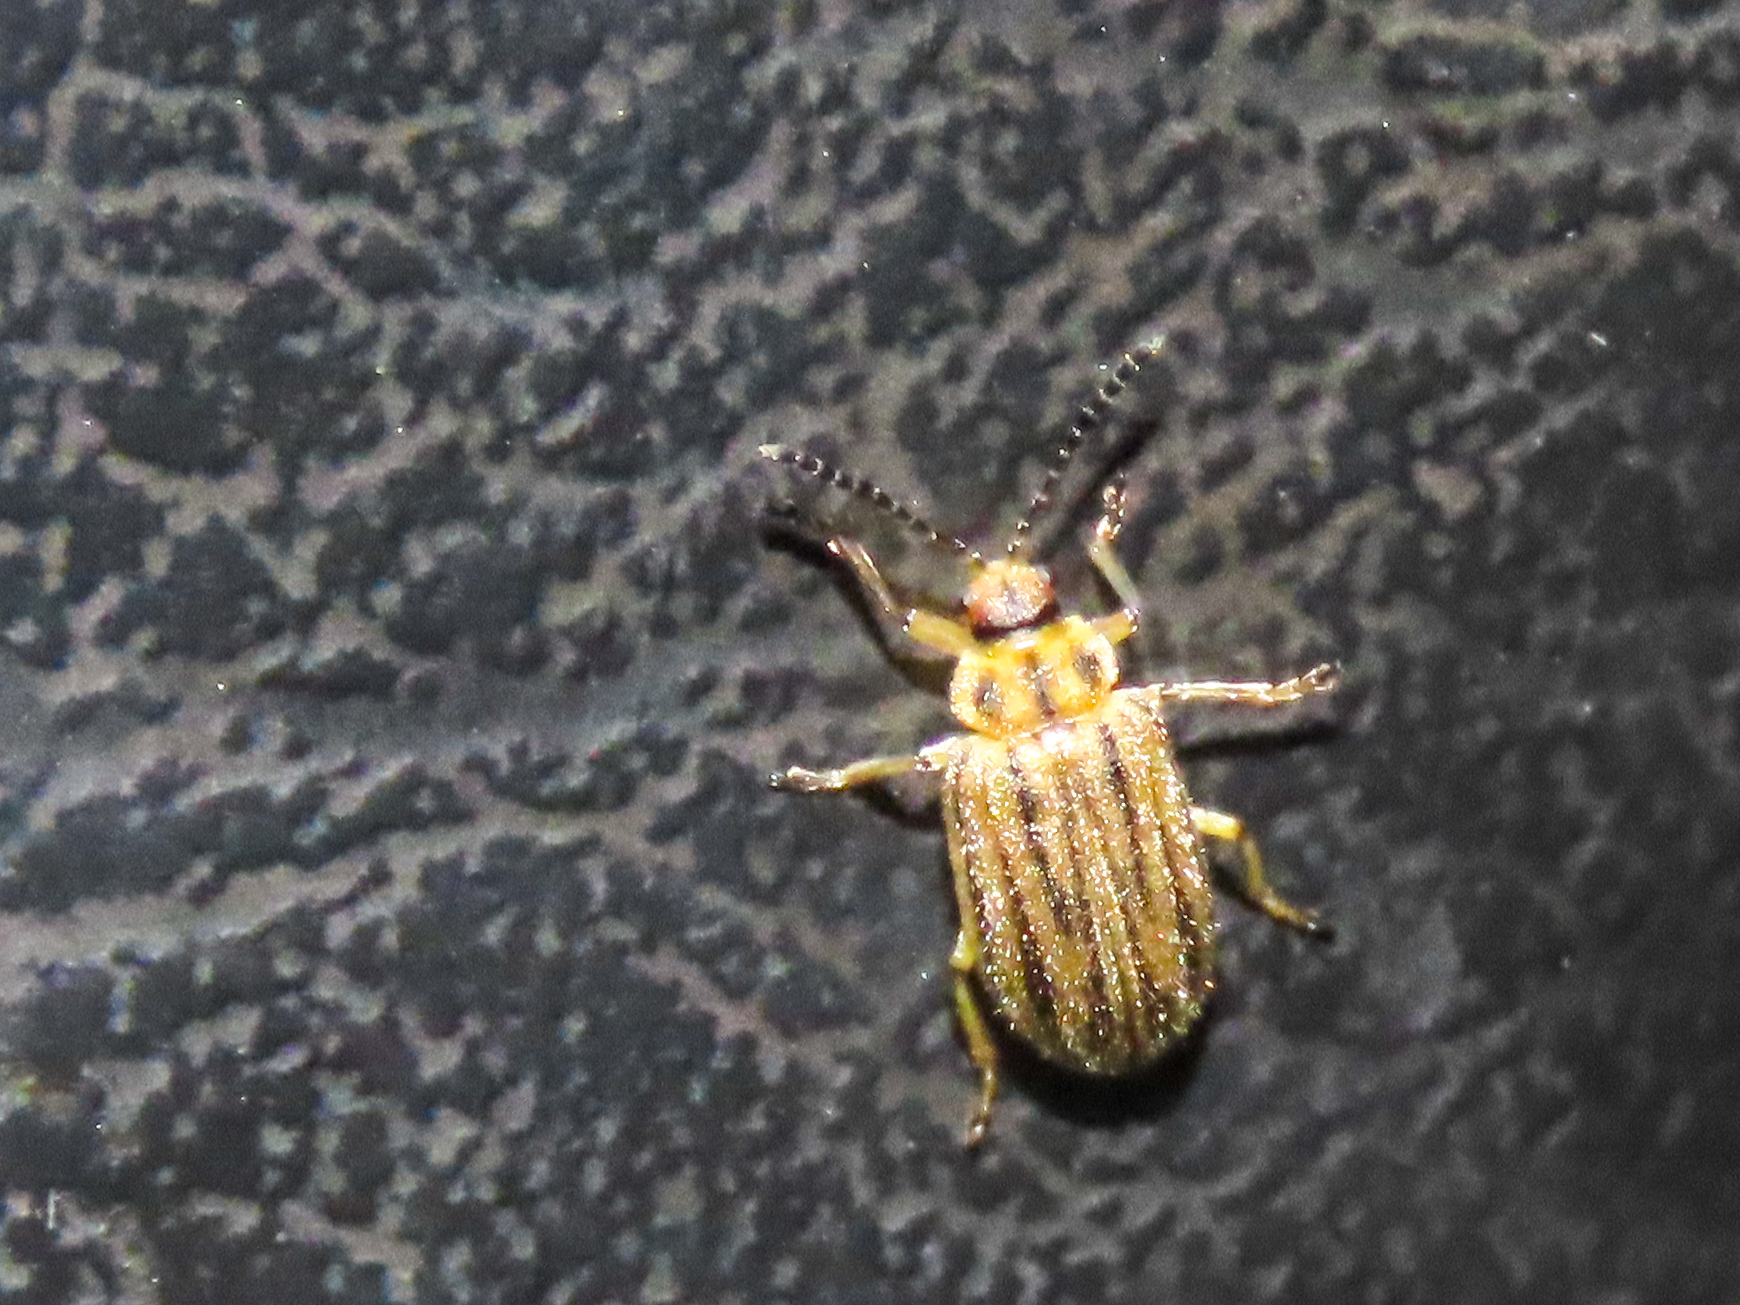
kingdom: Animalia
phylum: Arthropoda
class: Insecta
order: Coleoptera
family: Chrysomelidae
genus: Ophraella
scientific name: Ophraella communa
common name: Ragweed leaf beetle
